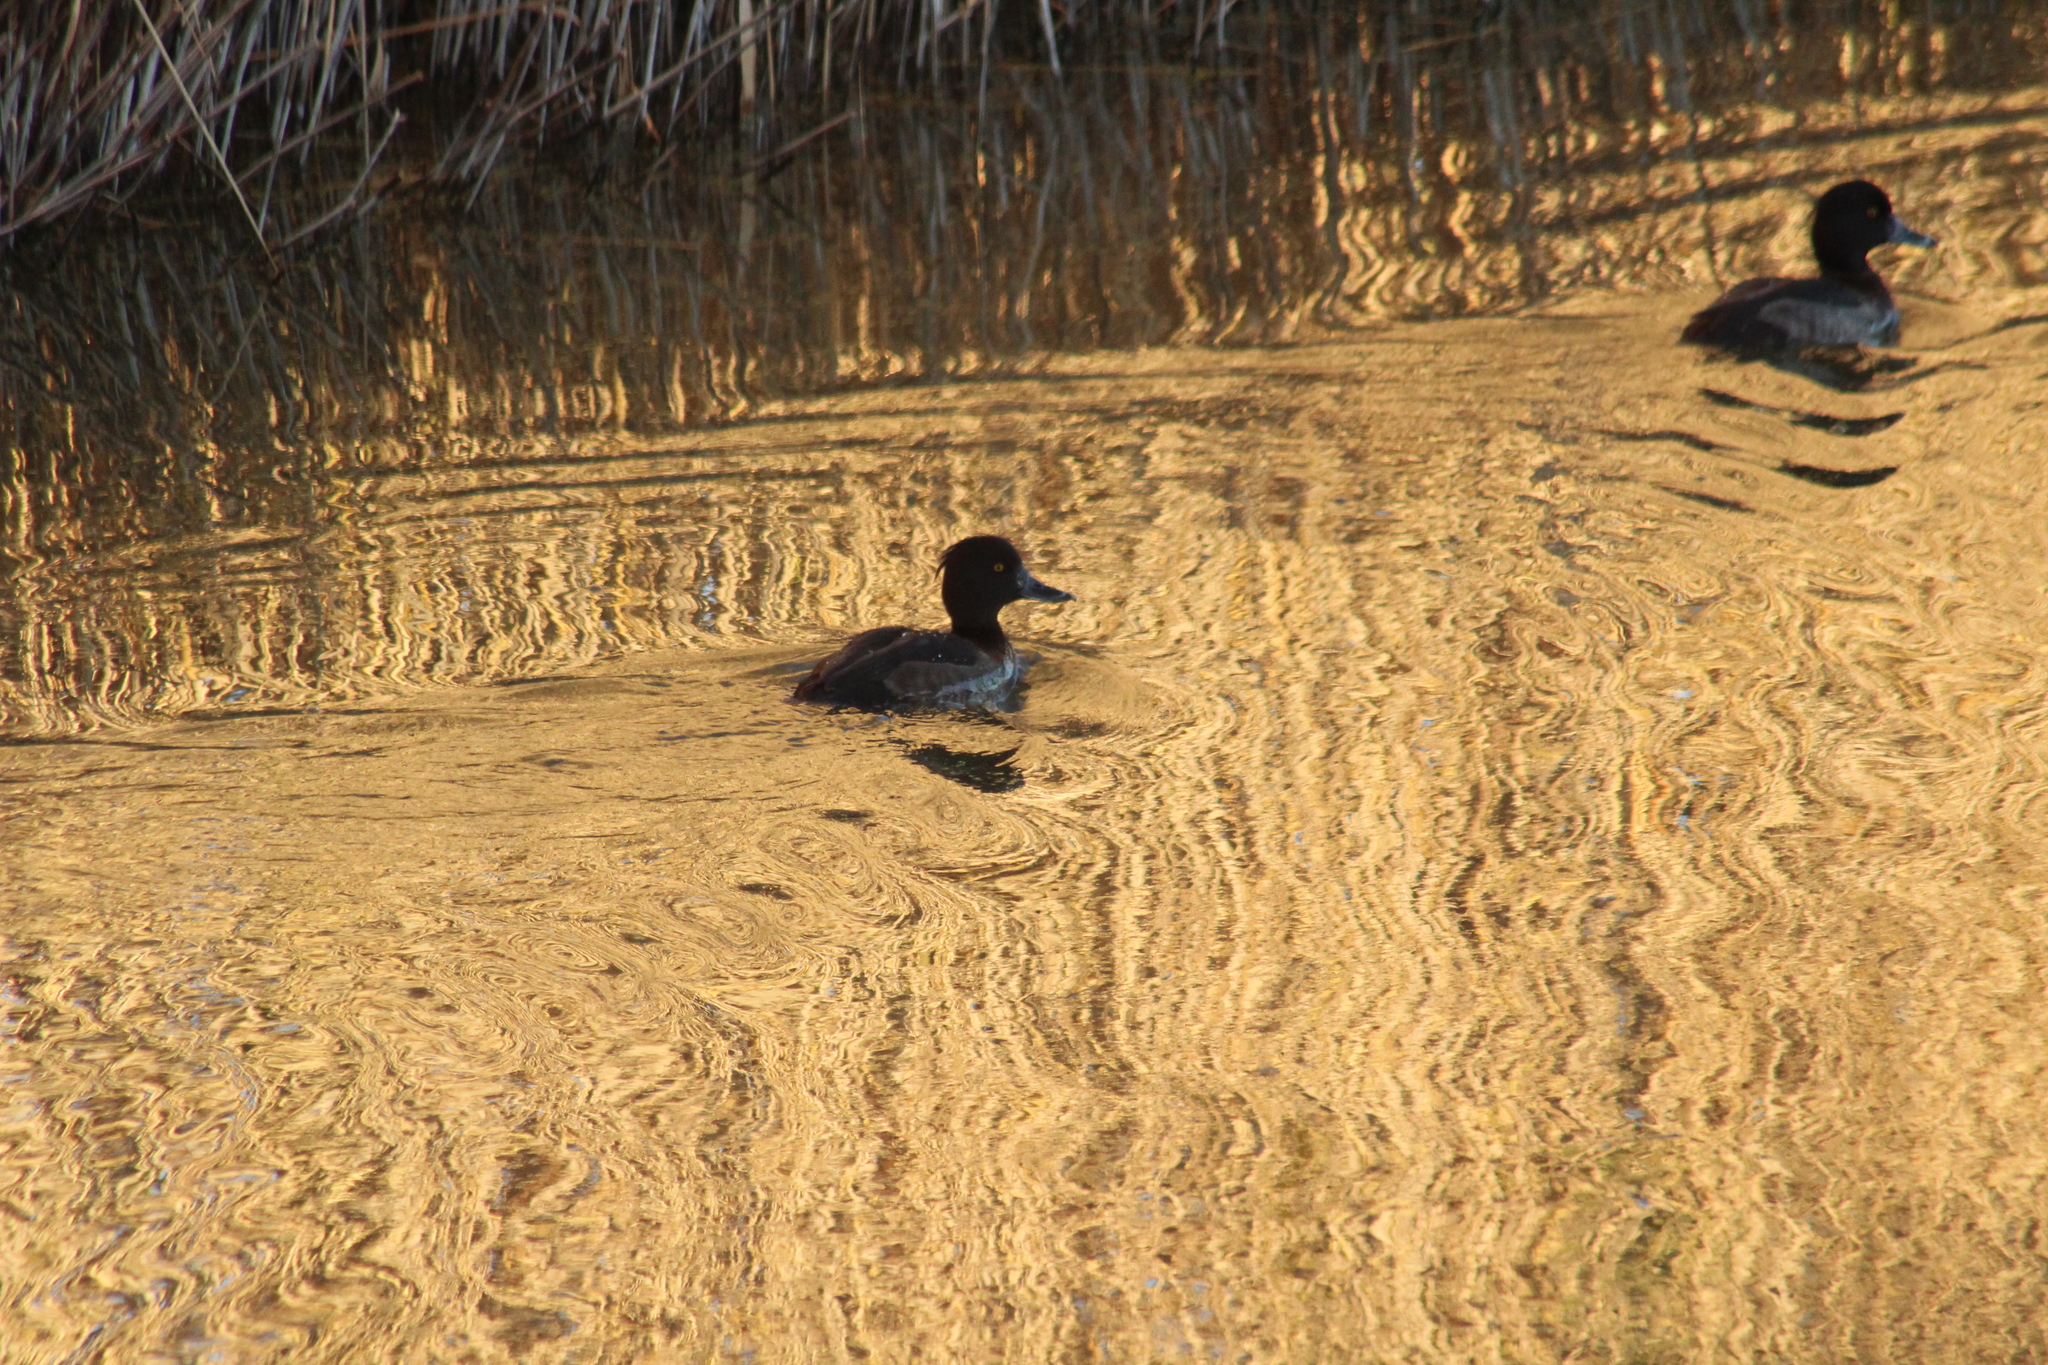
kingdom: Animalia
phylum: Chordata
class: Aves
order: Anseriformes
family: Anatidae
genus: Aythya
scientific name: Aythya fuligula
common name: Tufted duck
